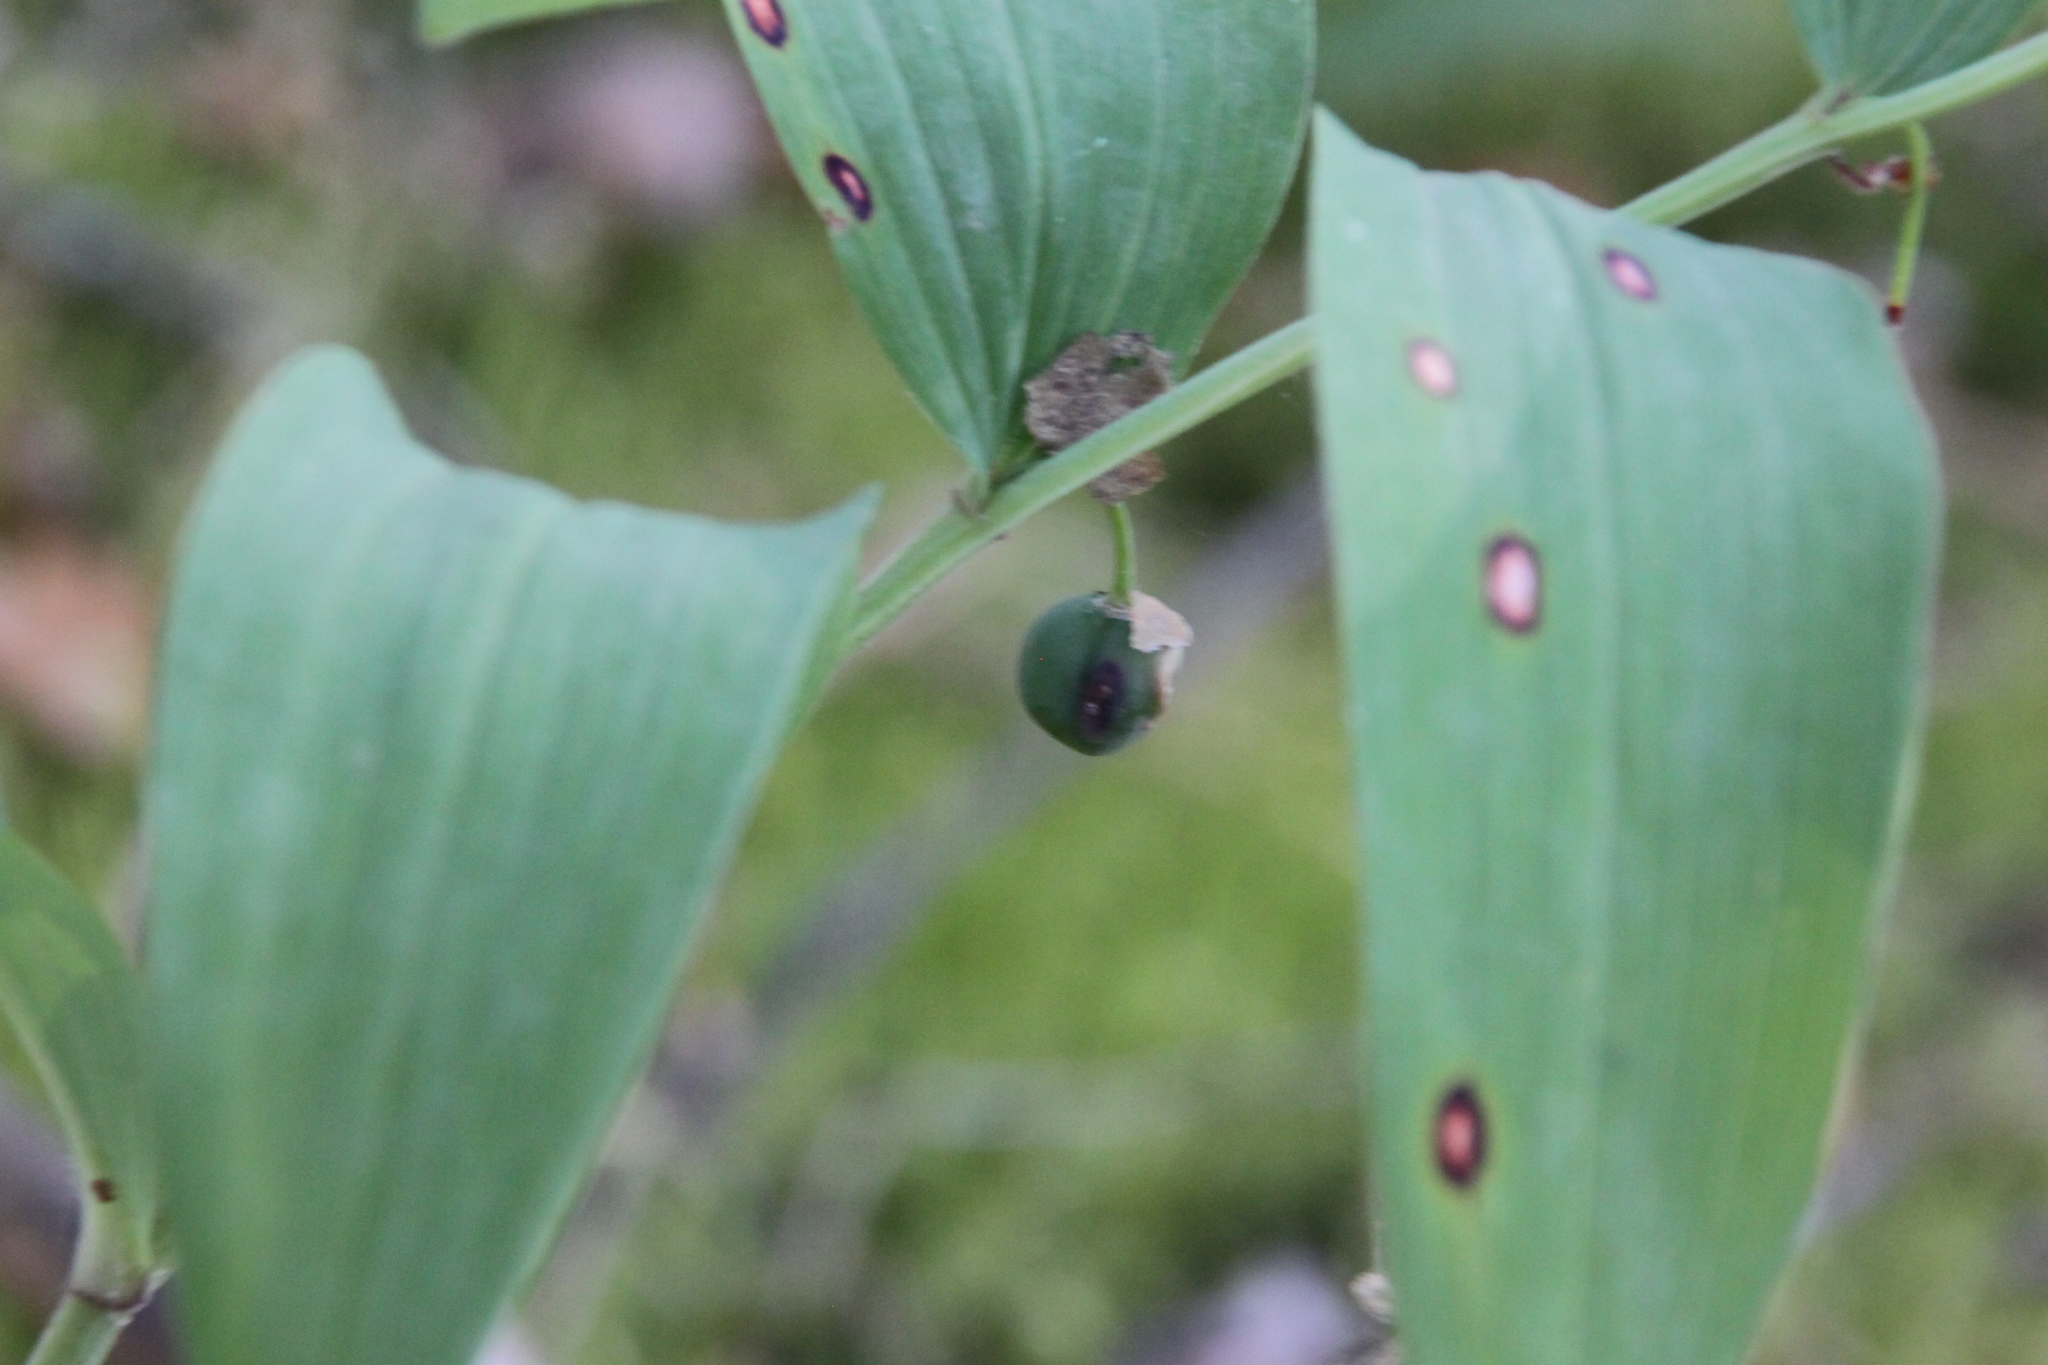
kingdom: Plantae
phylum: Tracheophyta
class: Liliopsida
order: Asparagales
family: Asparagaceae
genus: Polygonatum
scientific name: Polygonatum odoratum
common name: Angular solomon's-seal
